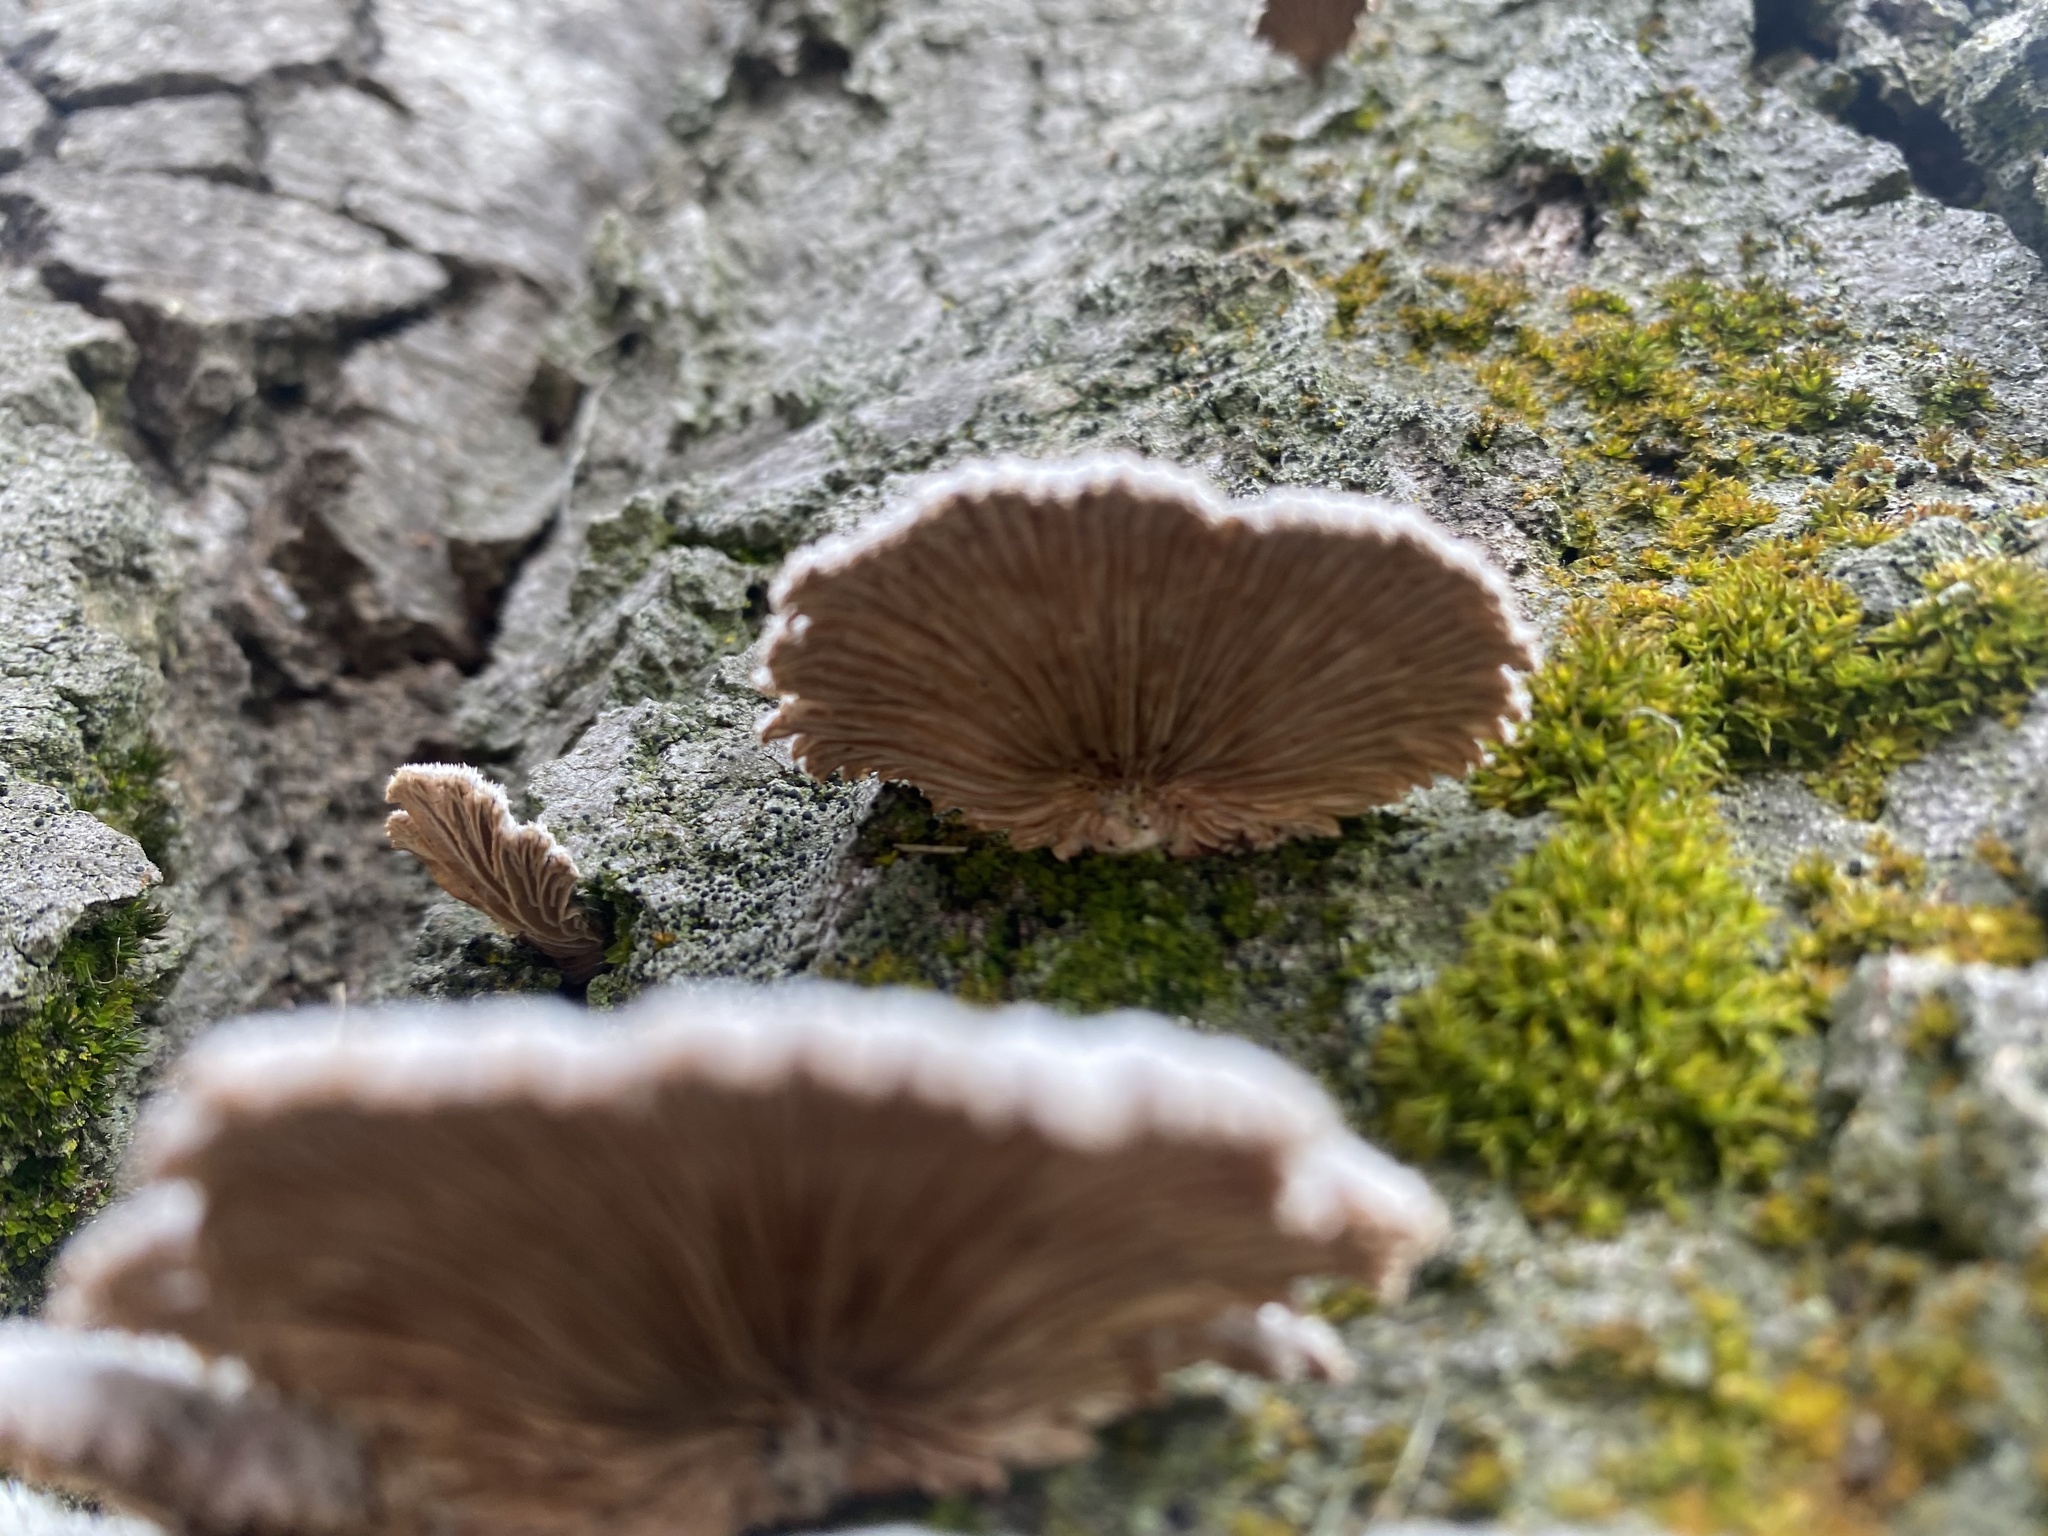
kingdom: Fungi
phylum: Basidiomycota
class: Agaricomycetes
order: Agaricales
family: Schizophyllaceae
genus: Schizophyllum
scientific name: Schizophyllum commune
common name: Common porecrust
